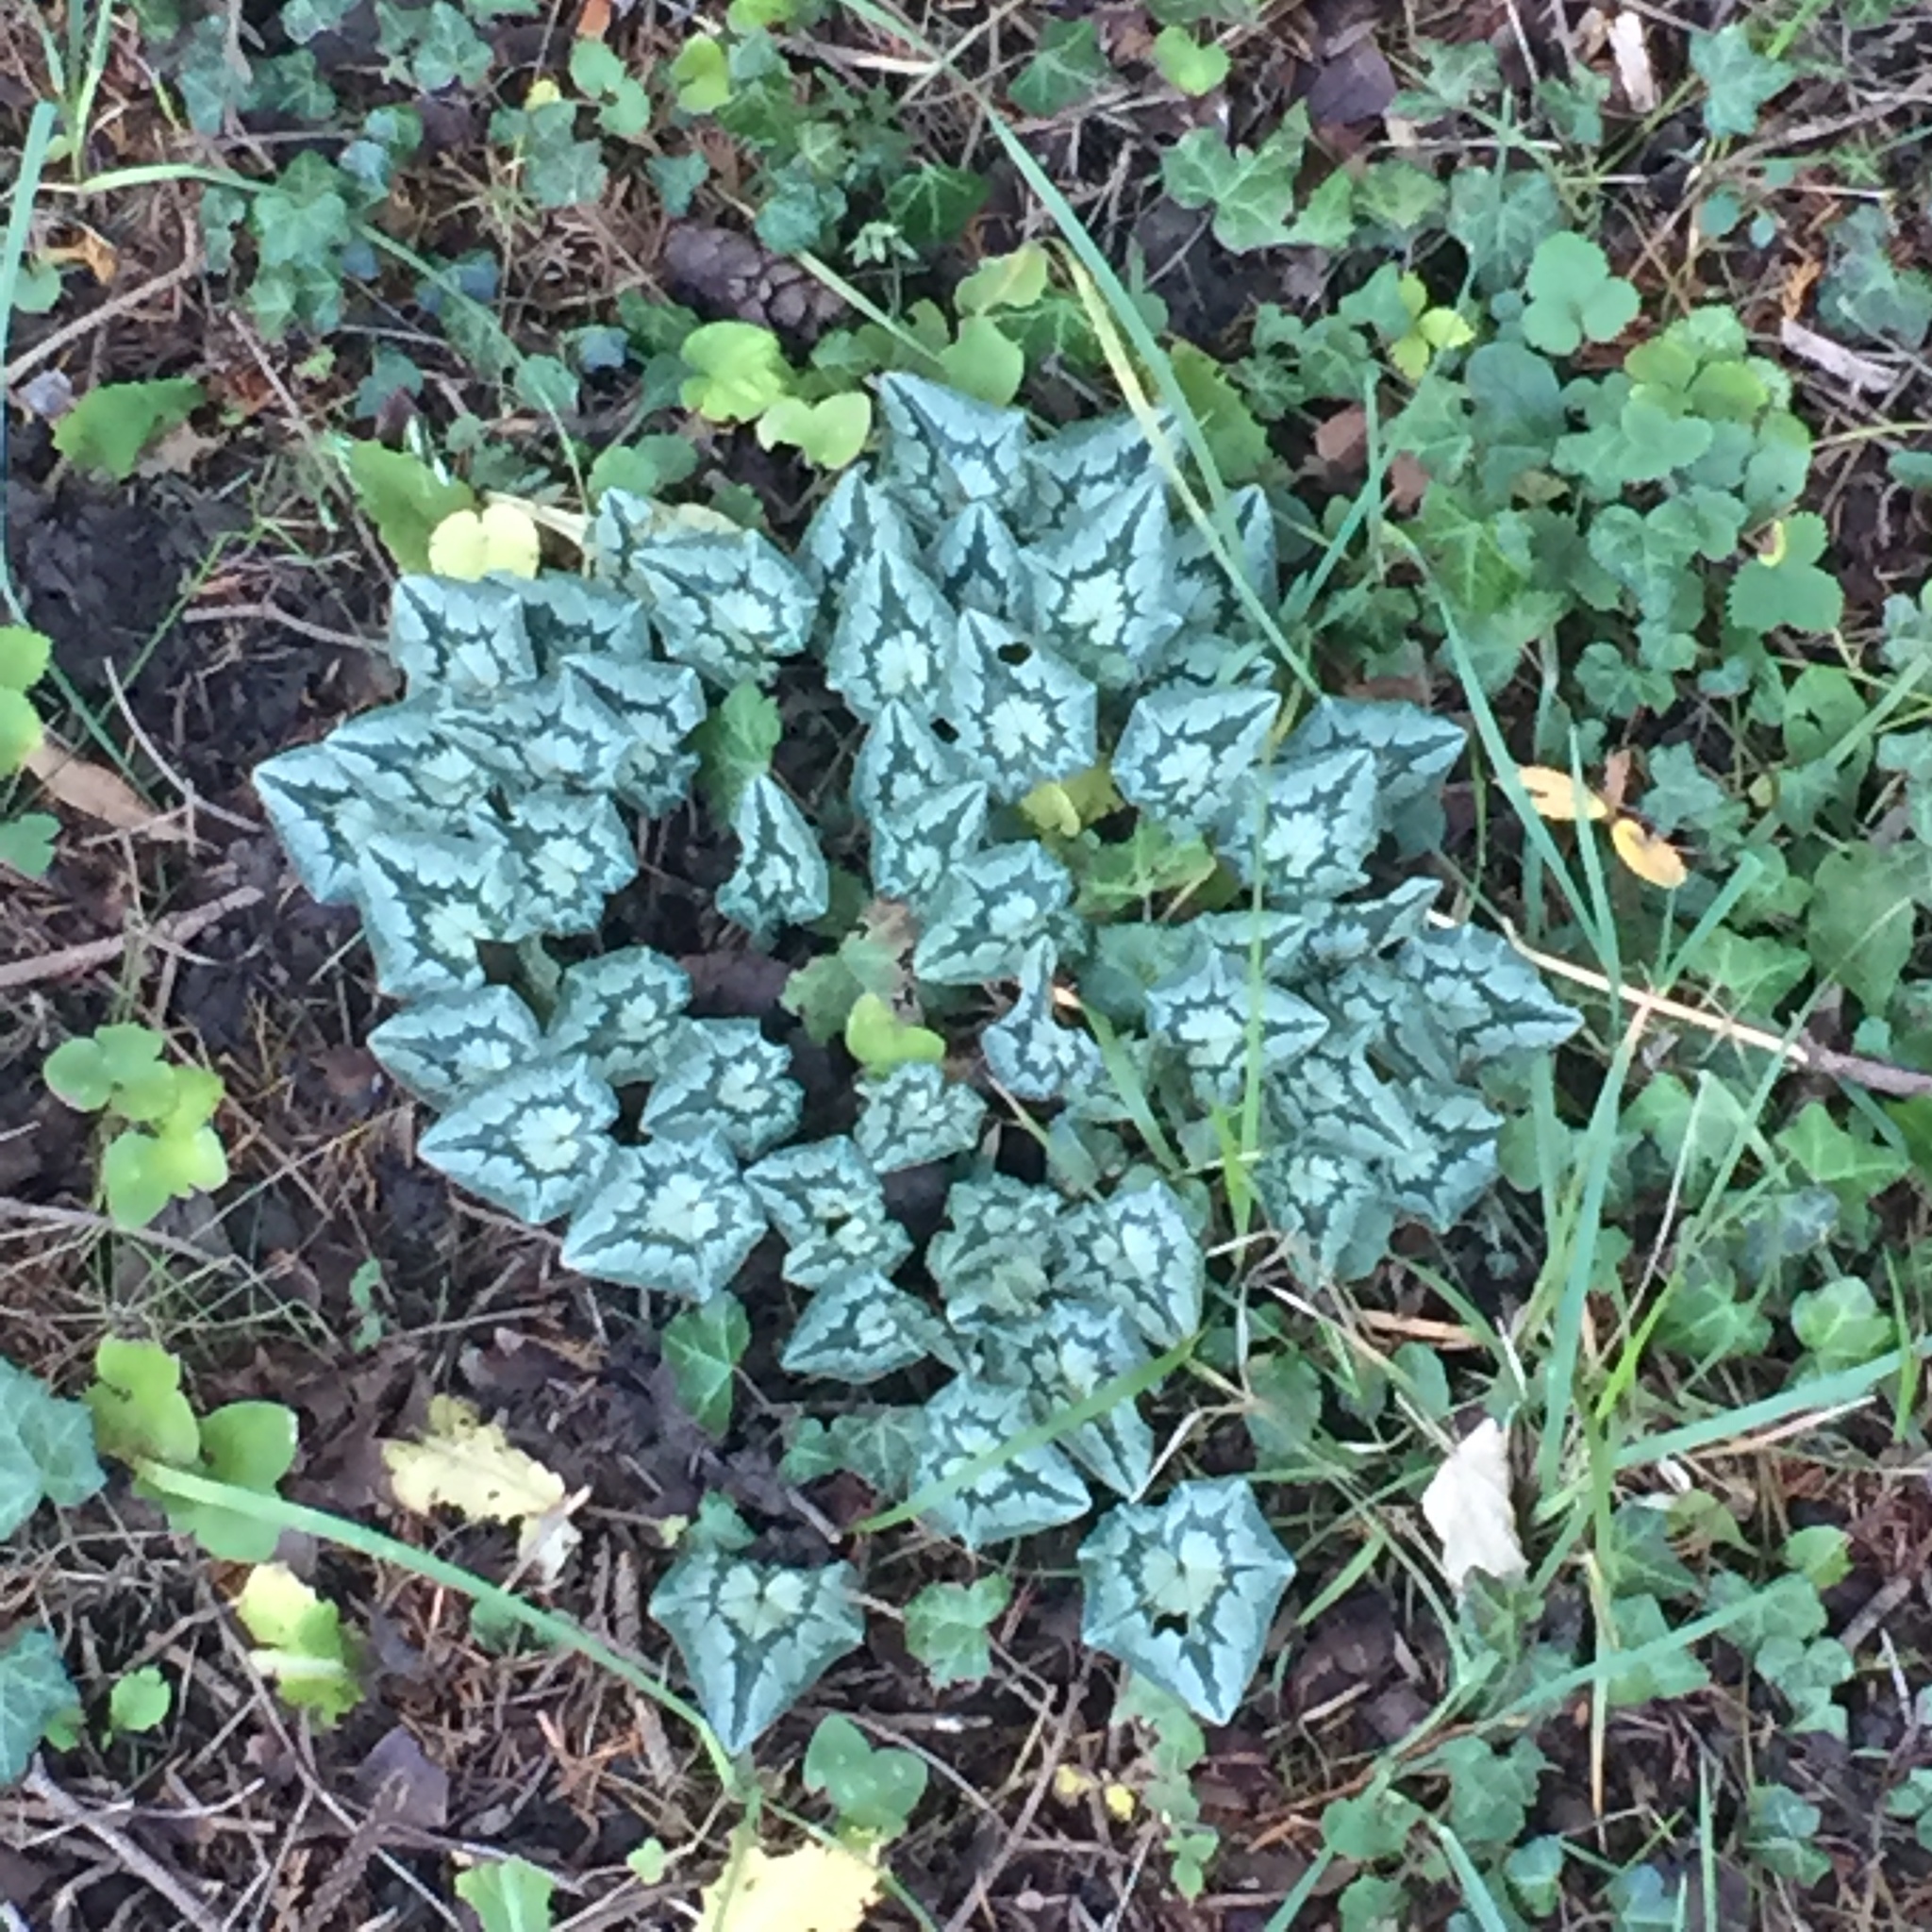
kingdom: Plantae
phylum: Tracheophyta
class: Magnoliopsida
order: Ericales
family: Primulaceae
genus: Cyclamen
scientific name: Cyclamen hederifolium
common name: Sowbread
